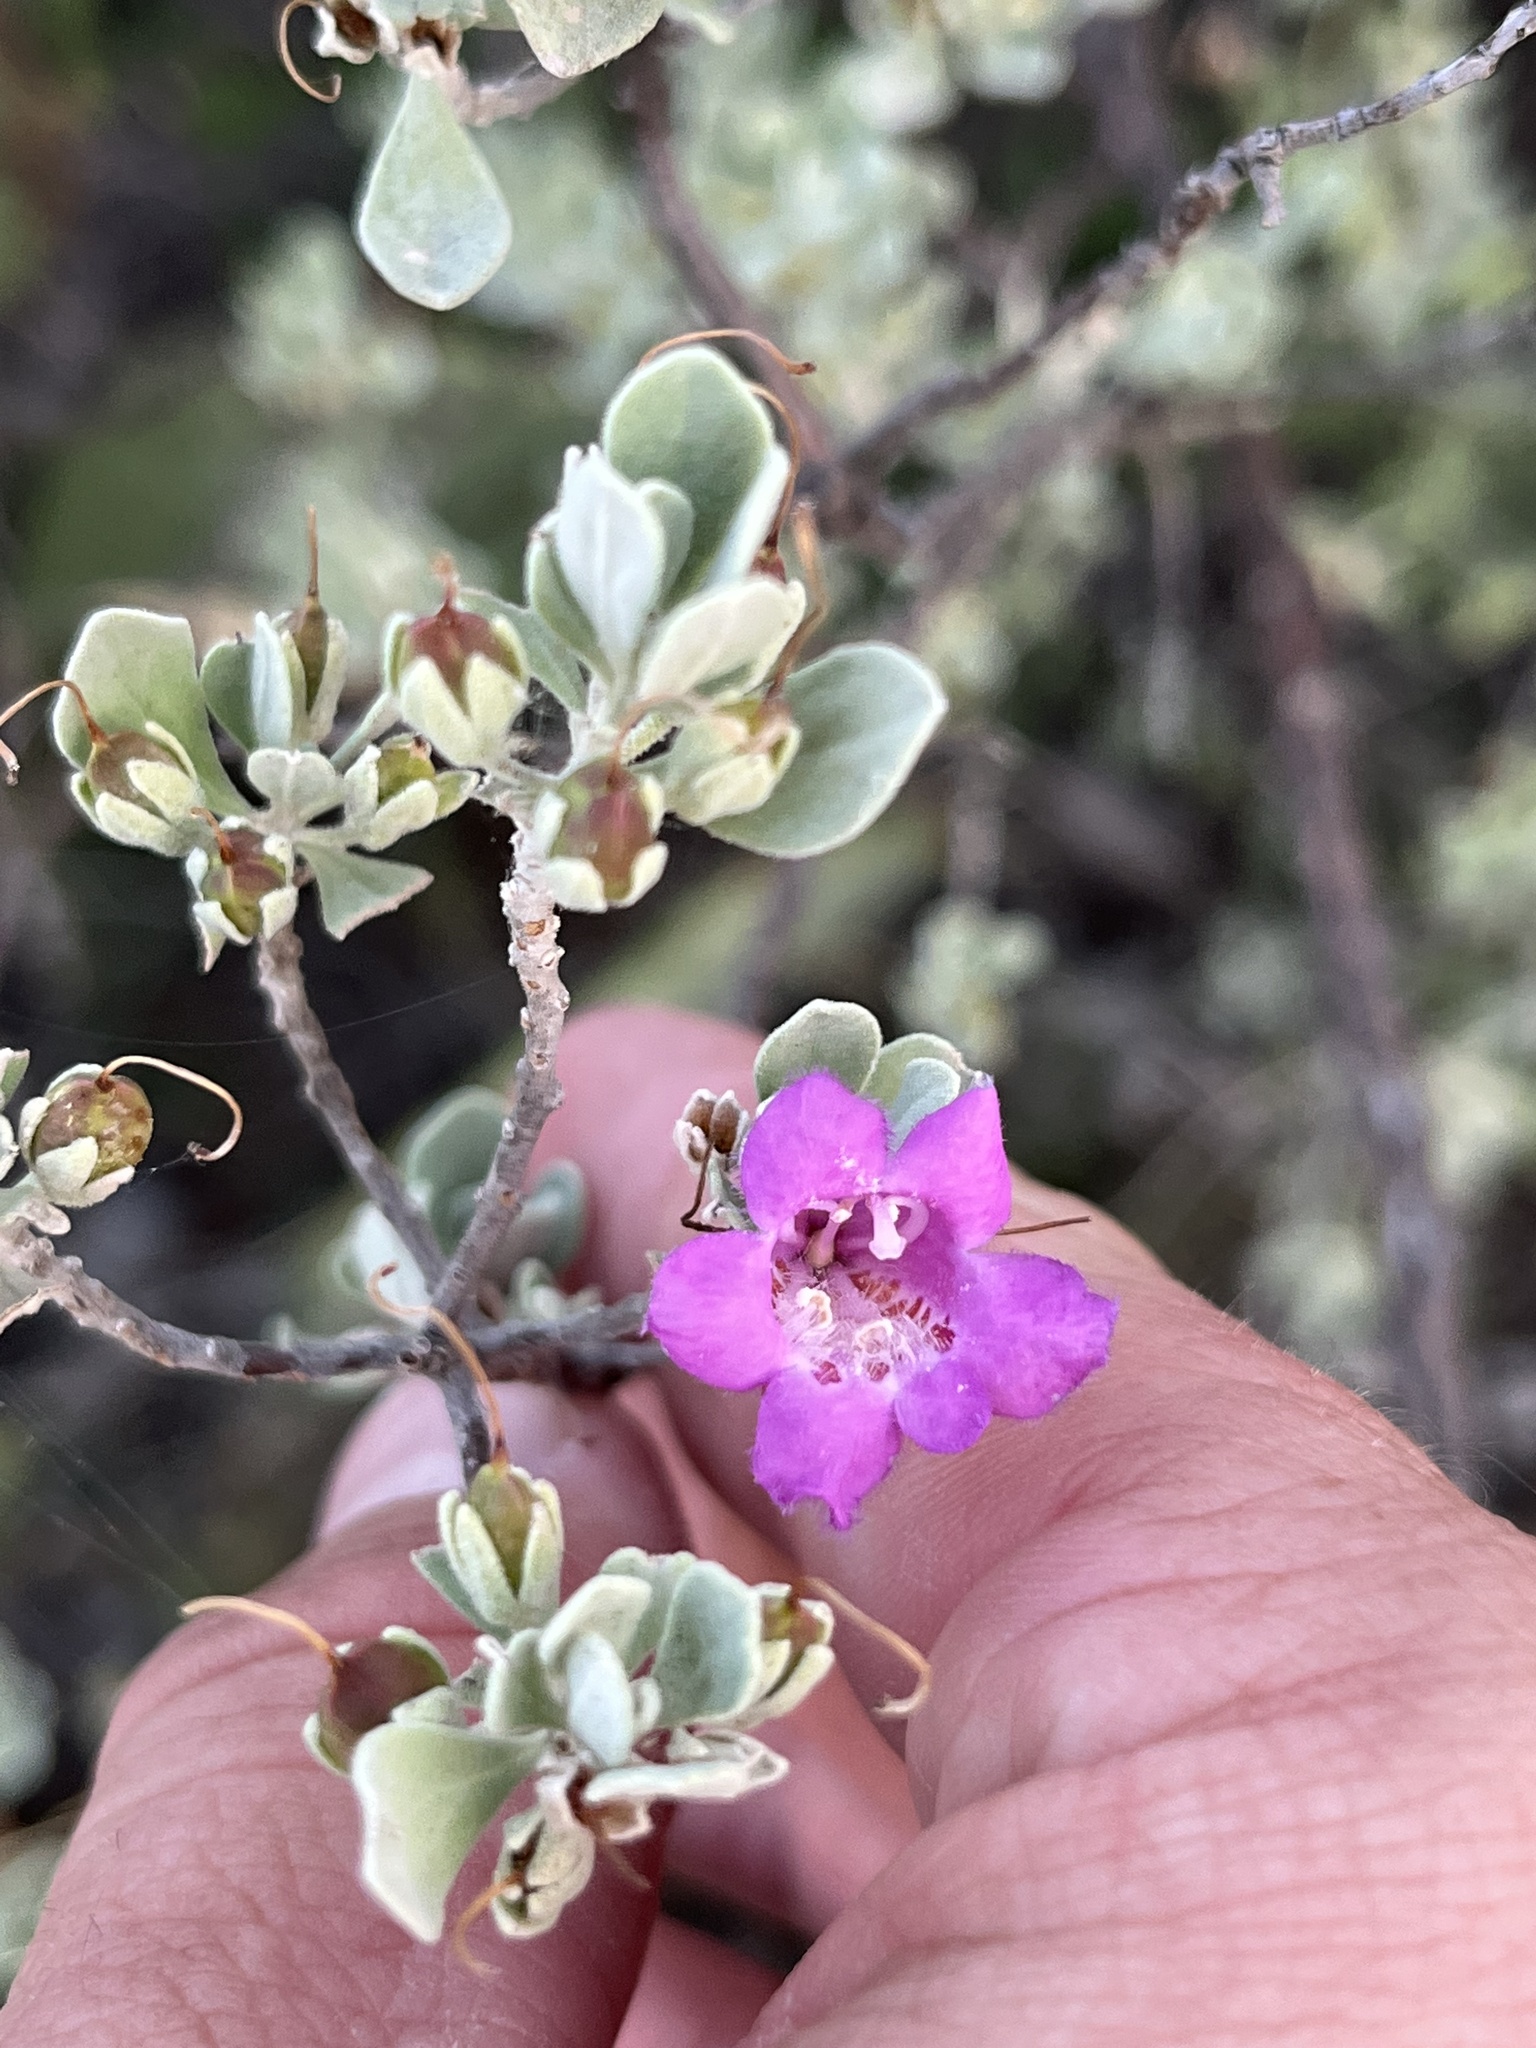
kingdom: Plantae
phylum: Tracheophyta
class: Magnoliopsida
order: Lamiales
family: Scrophulariaceae
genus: Leucophyllum
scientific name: Leucophyllum frutescens
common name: Texas silverleaf
